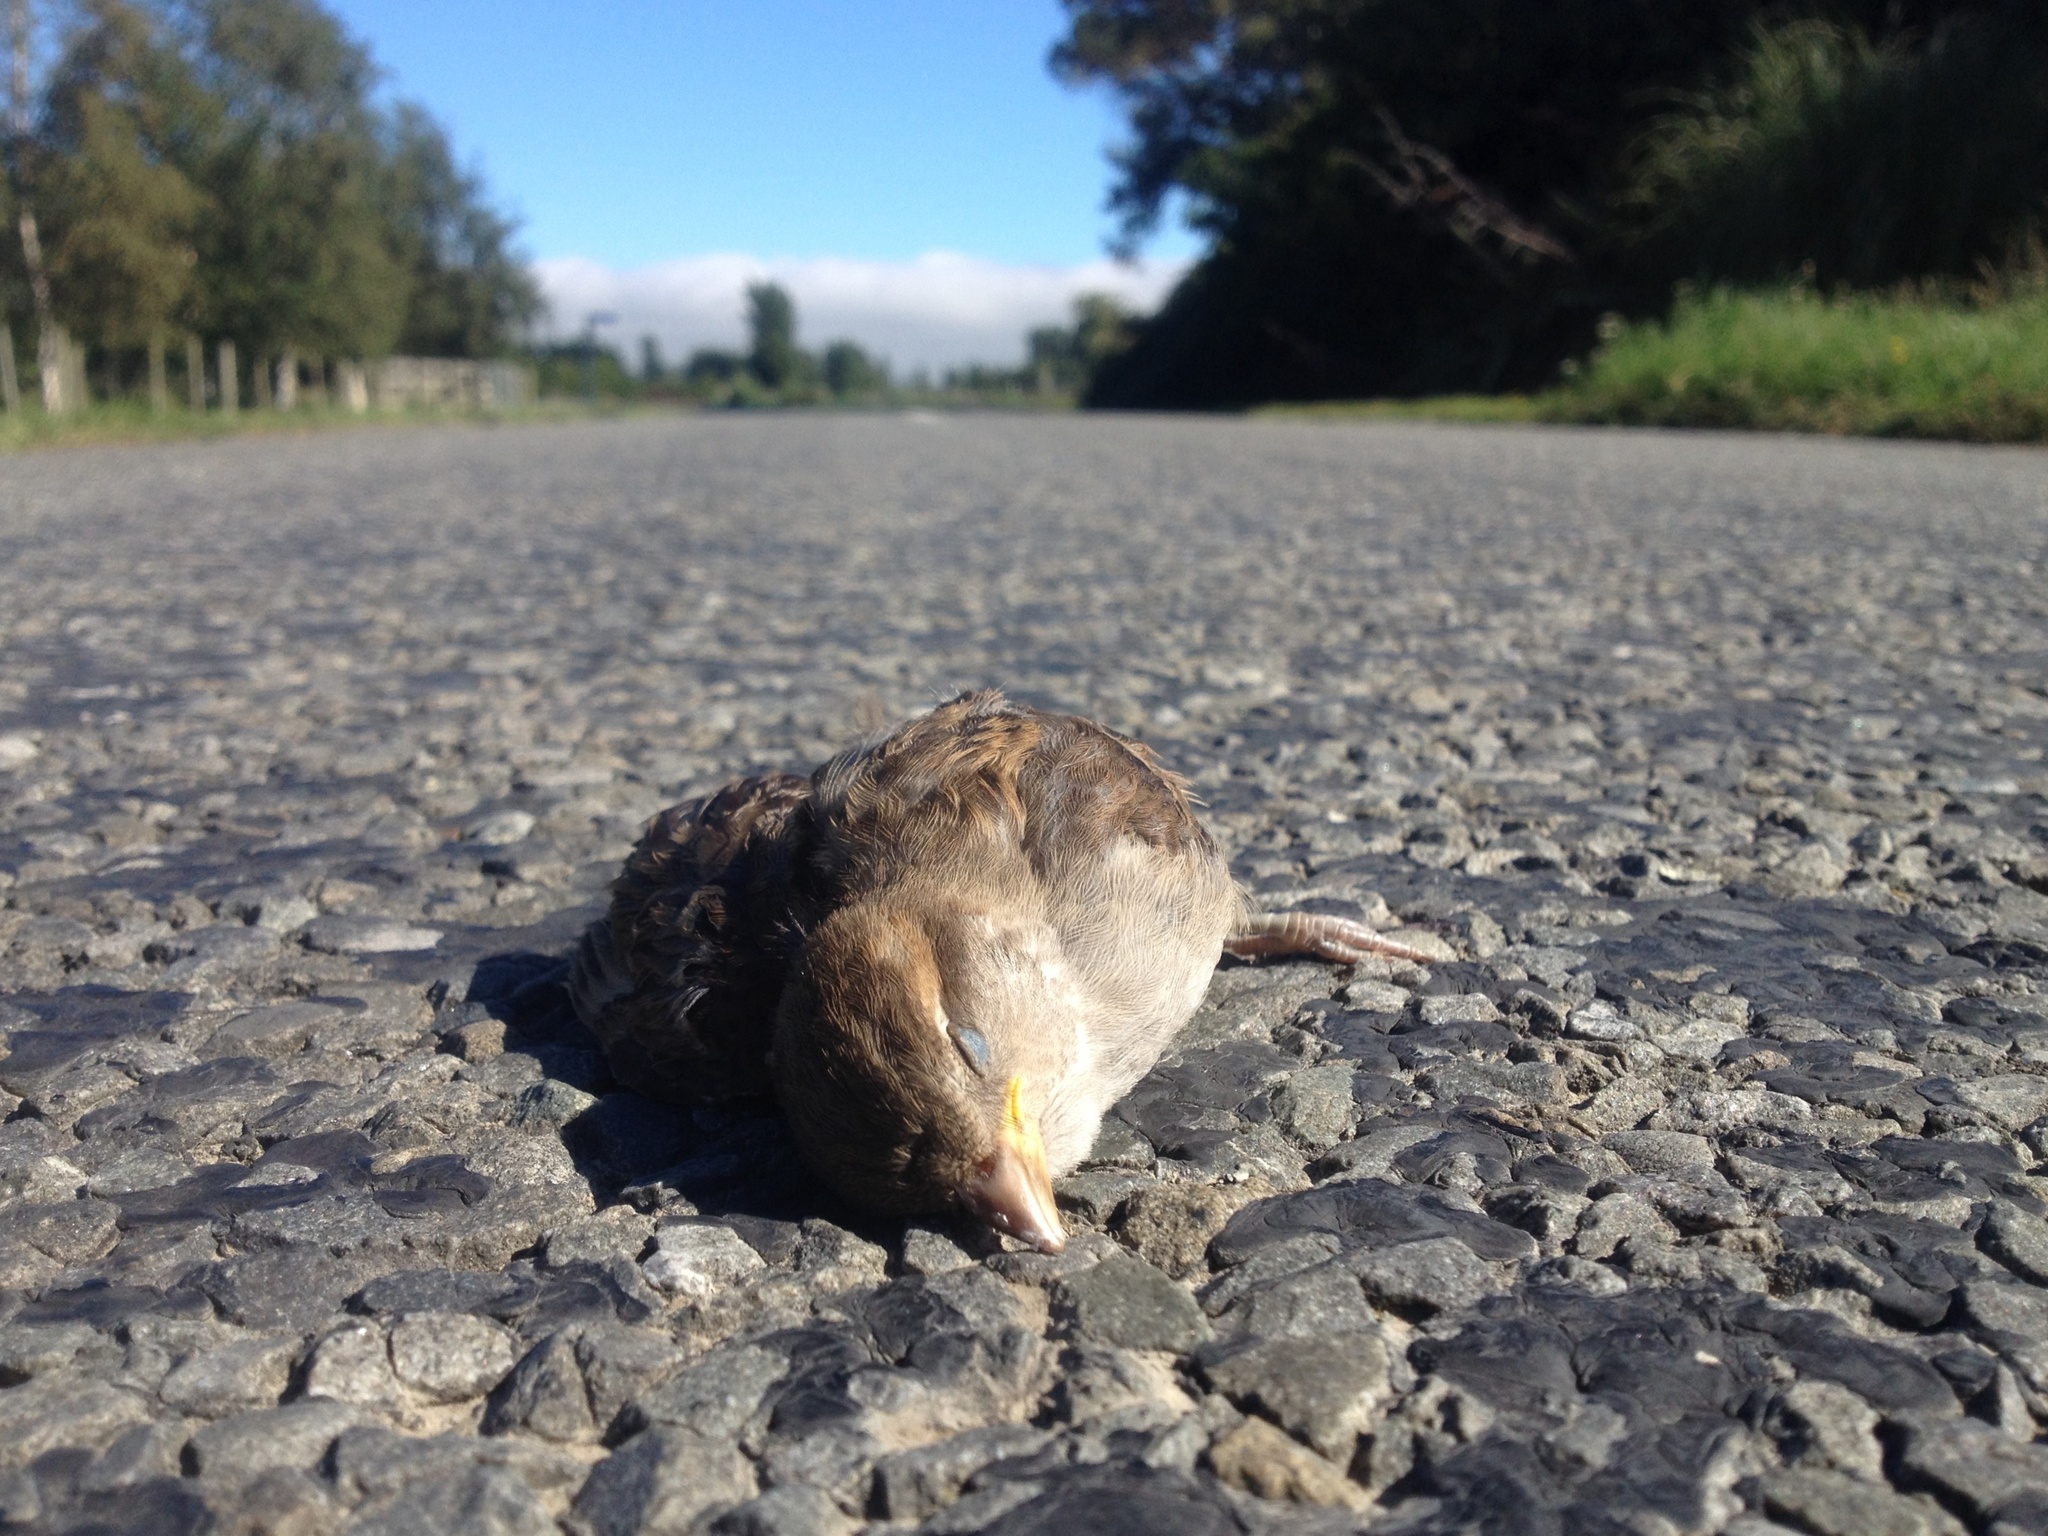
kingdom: Animalia
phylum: Chordata
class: Aves
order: Passeriformes
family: Passeridae
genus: Passer
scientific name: Passer domesticus
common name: House sparrow
